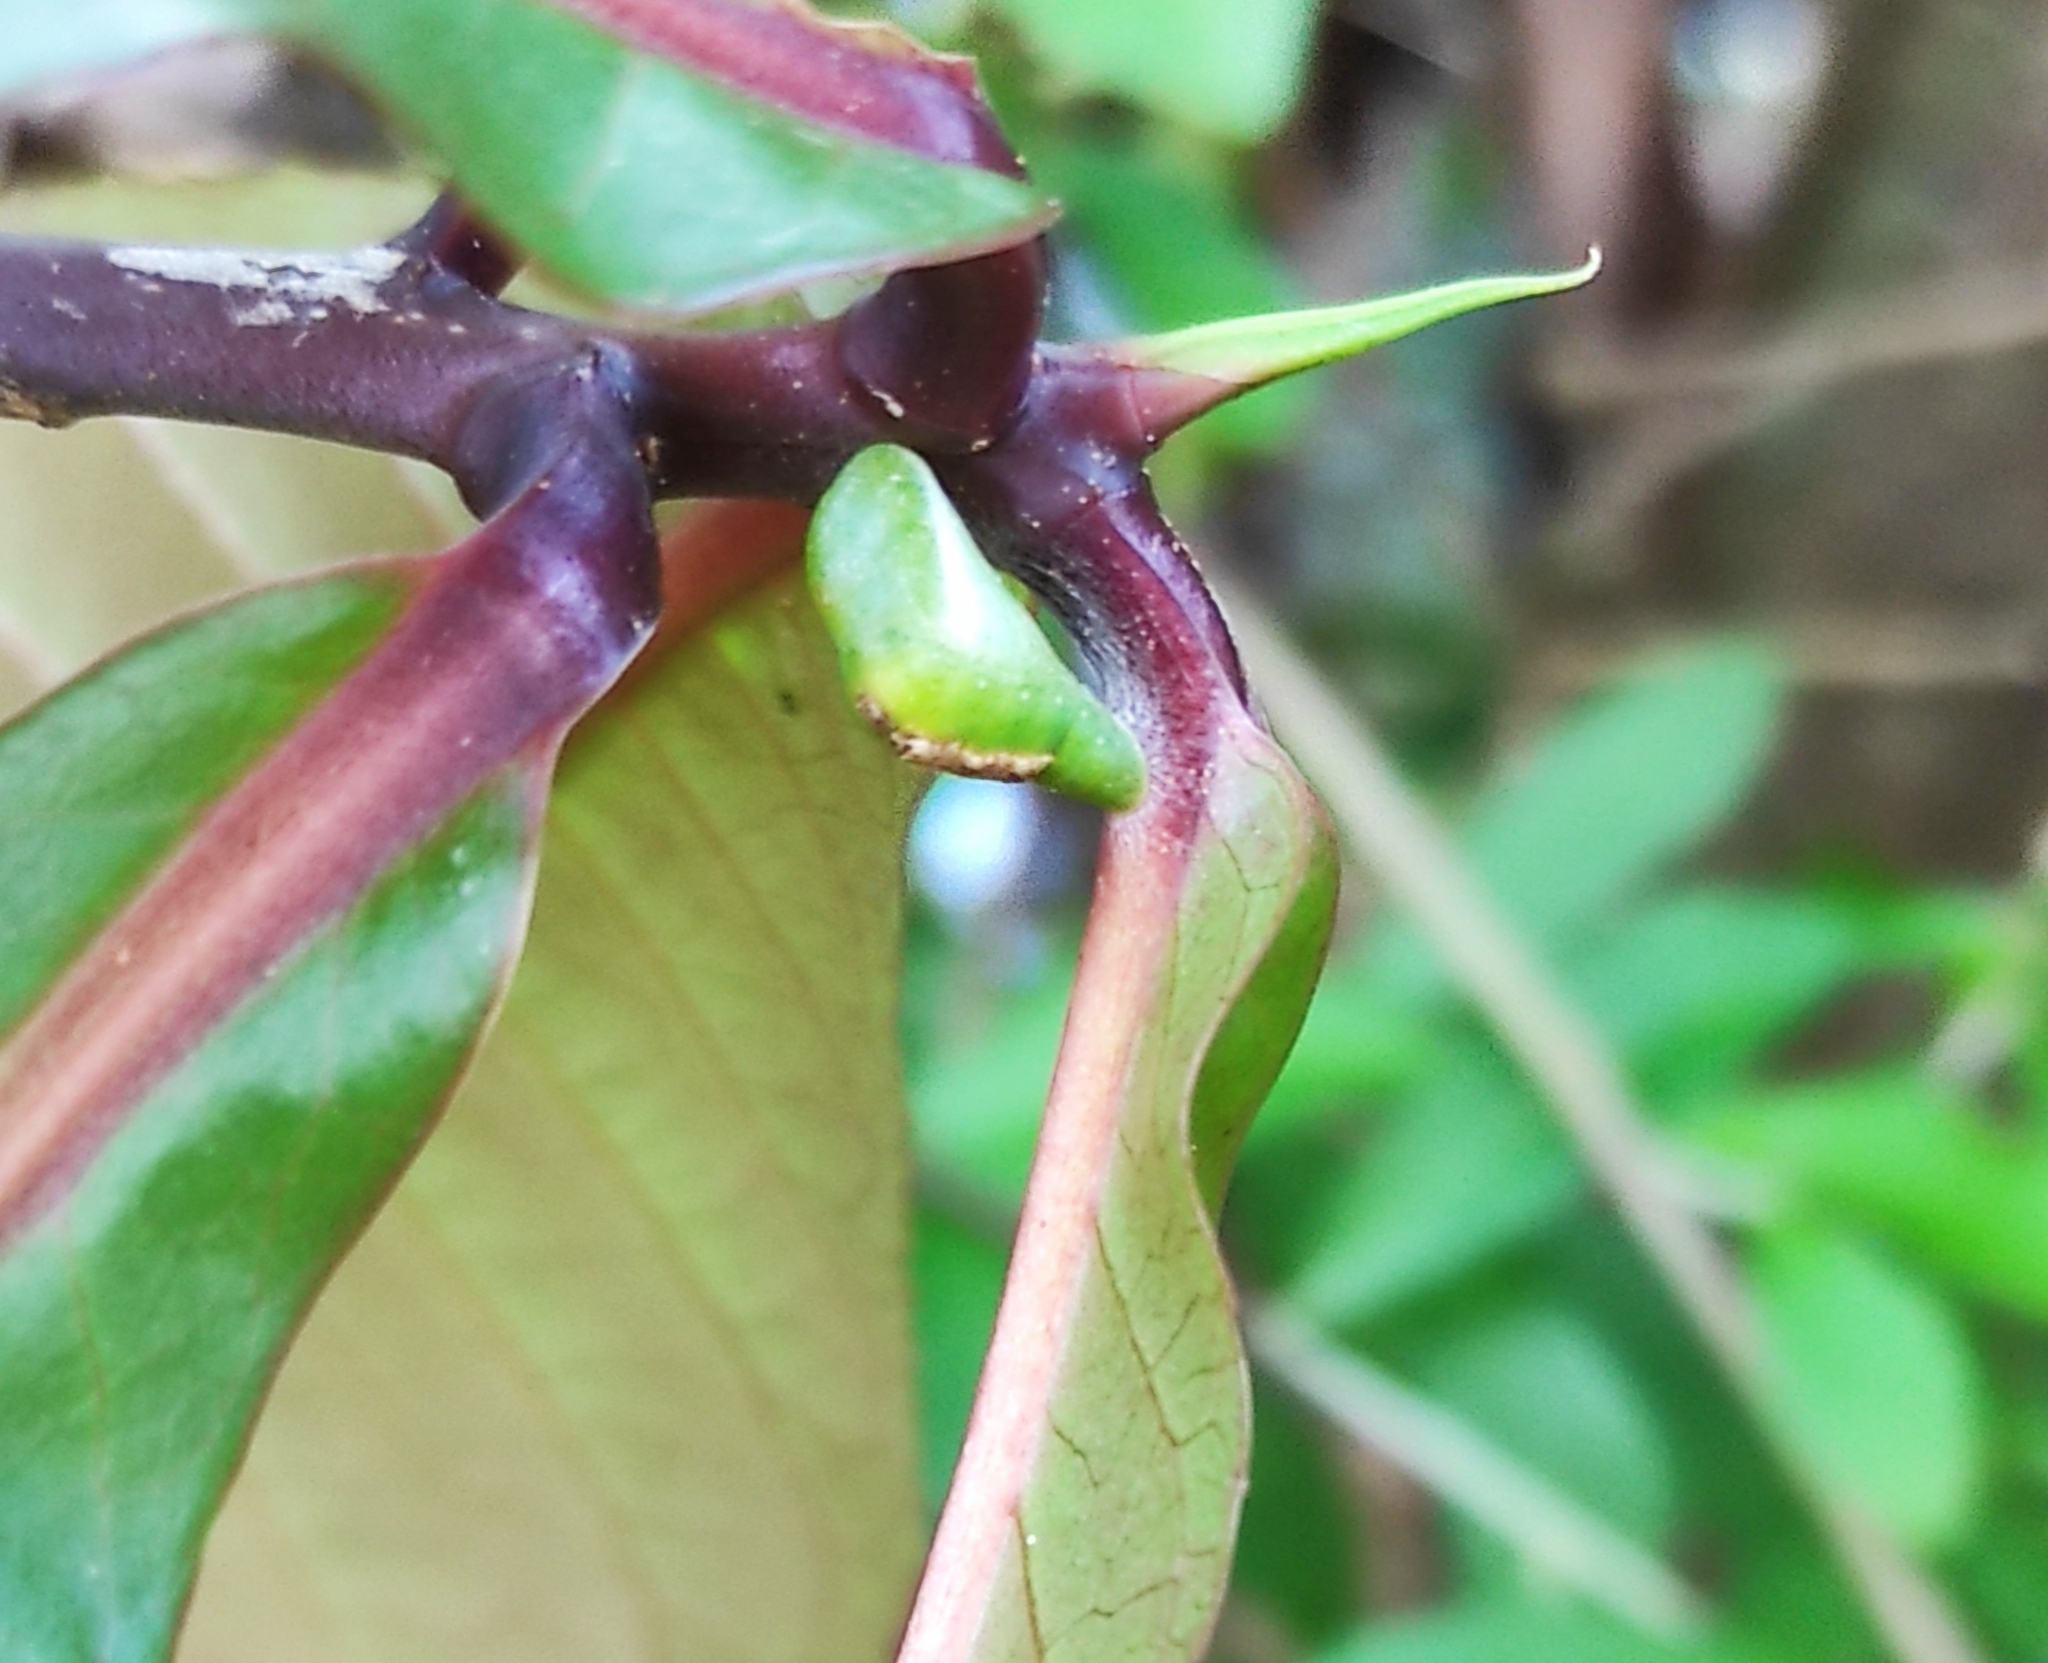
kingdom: Animalia
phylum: Arthropoda
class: Insecta
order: Lepidoptera
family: Lycaenidae
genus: Rathinda
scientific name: Rathinda amor
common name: Monkey puzzle
